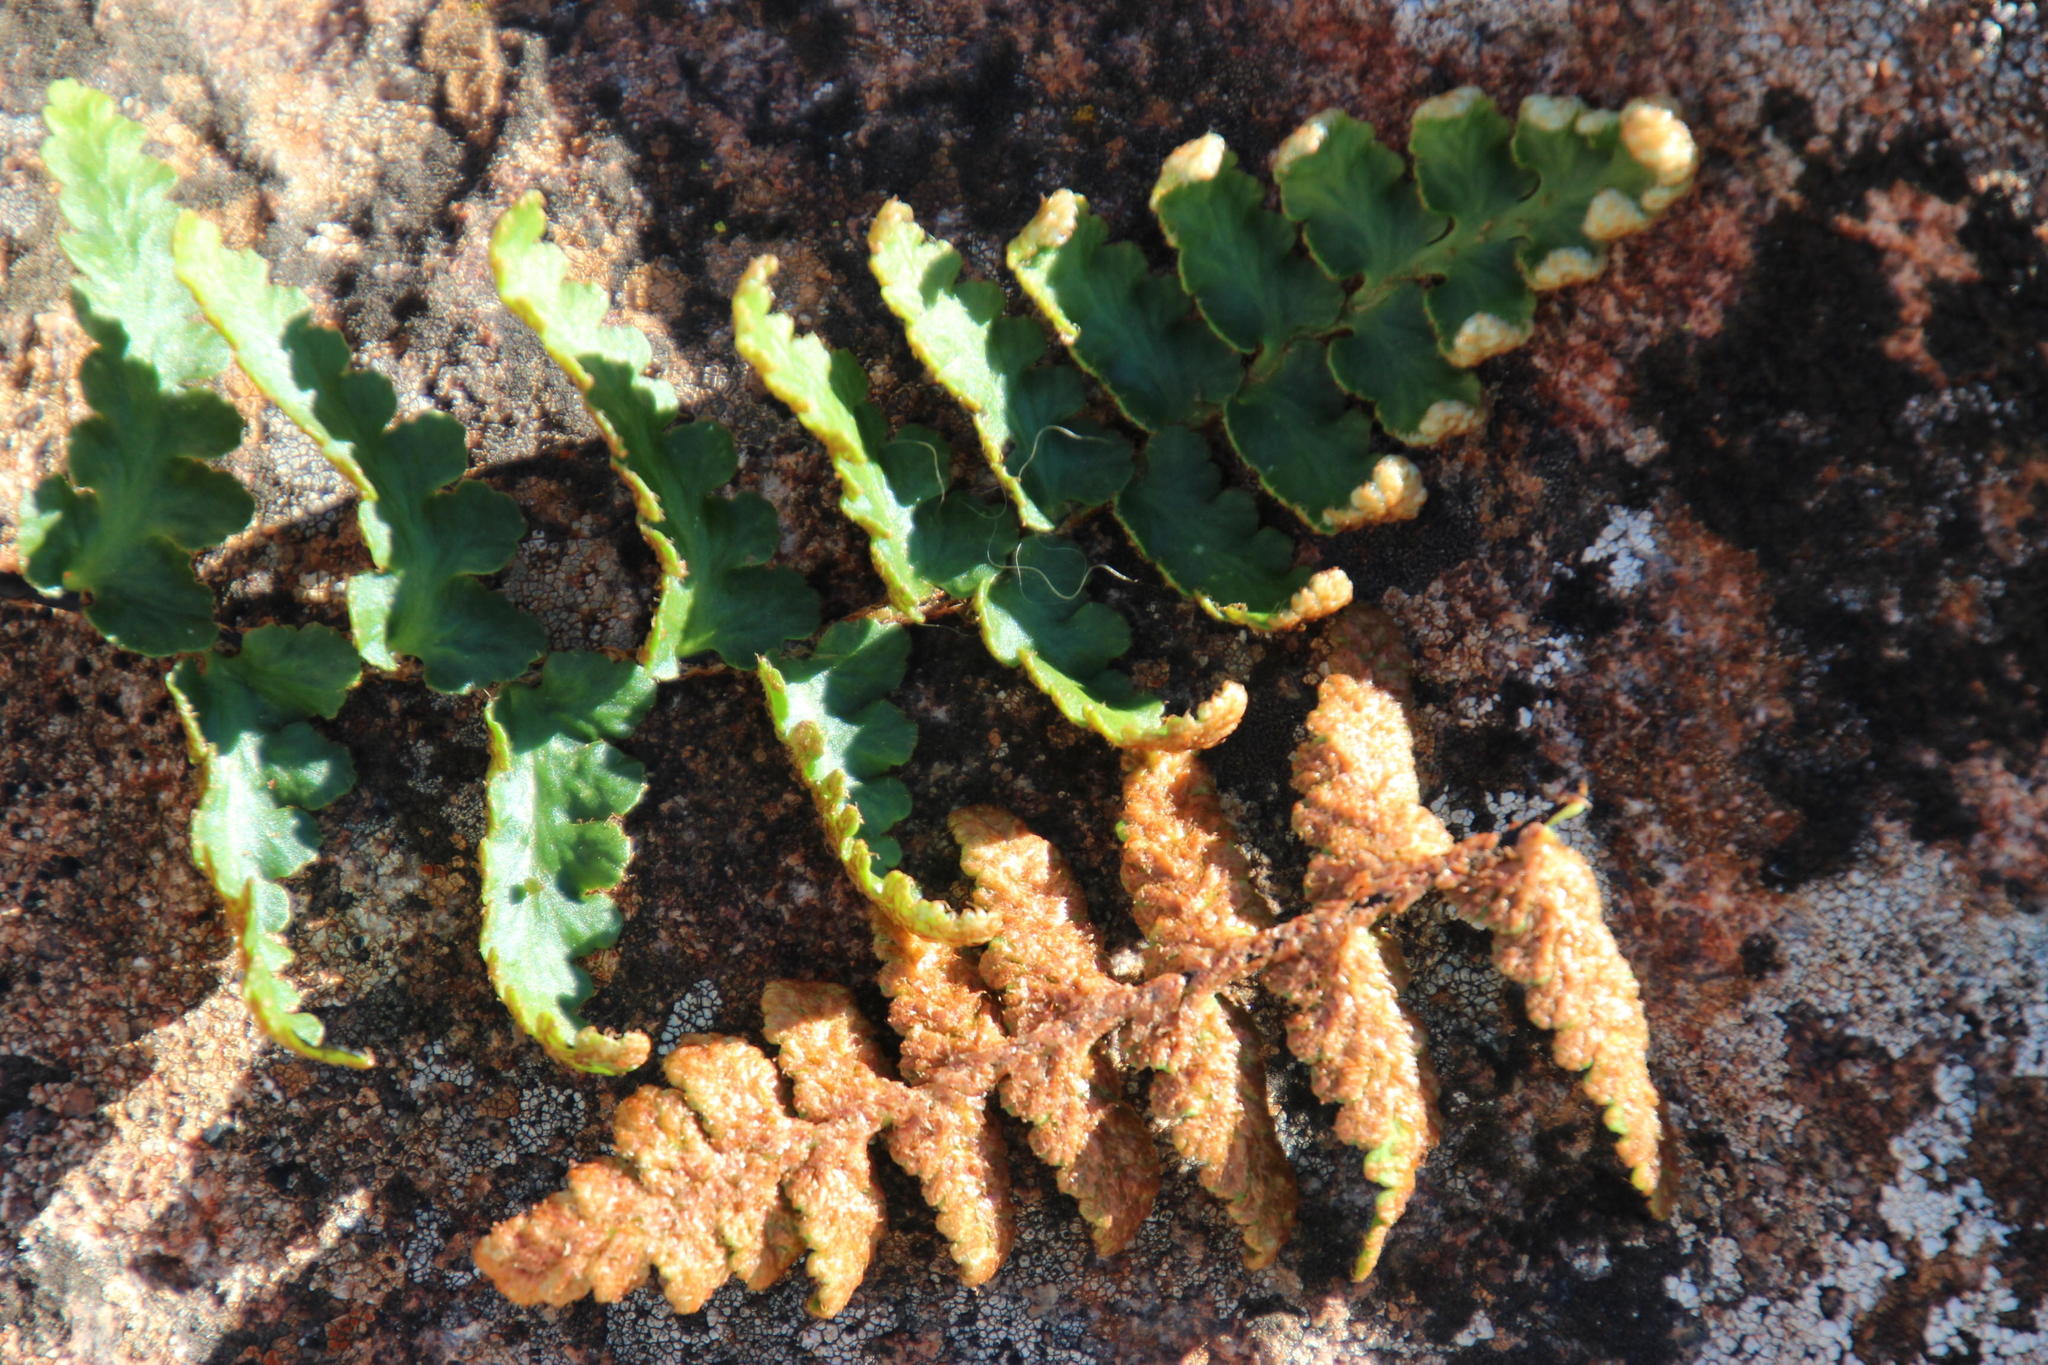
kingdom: Plantae
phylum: Tracheophyta
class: Polypodiopsida
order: Polypodiales
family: Aspleniaceae
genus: Asplenium
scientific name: Asplenium cordatum
